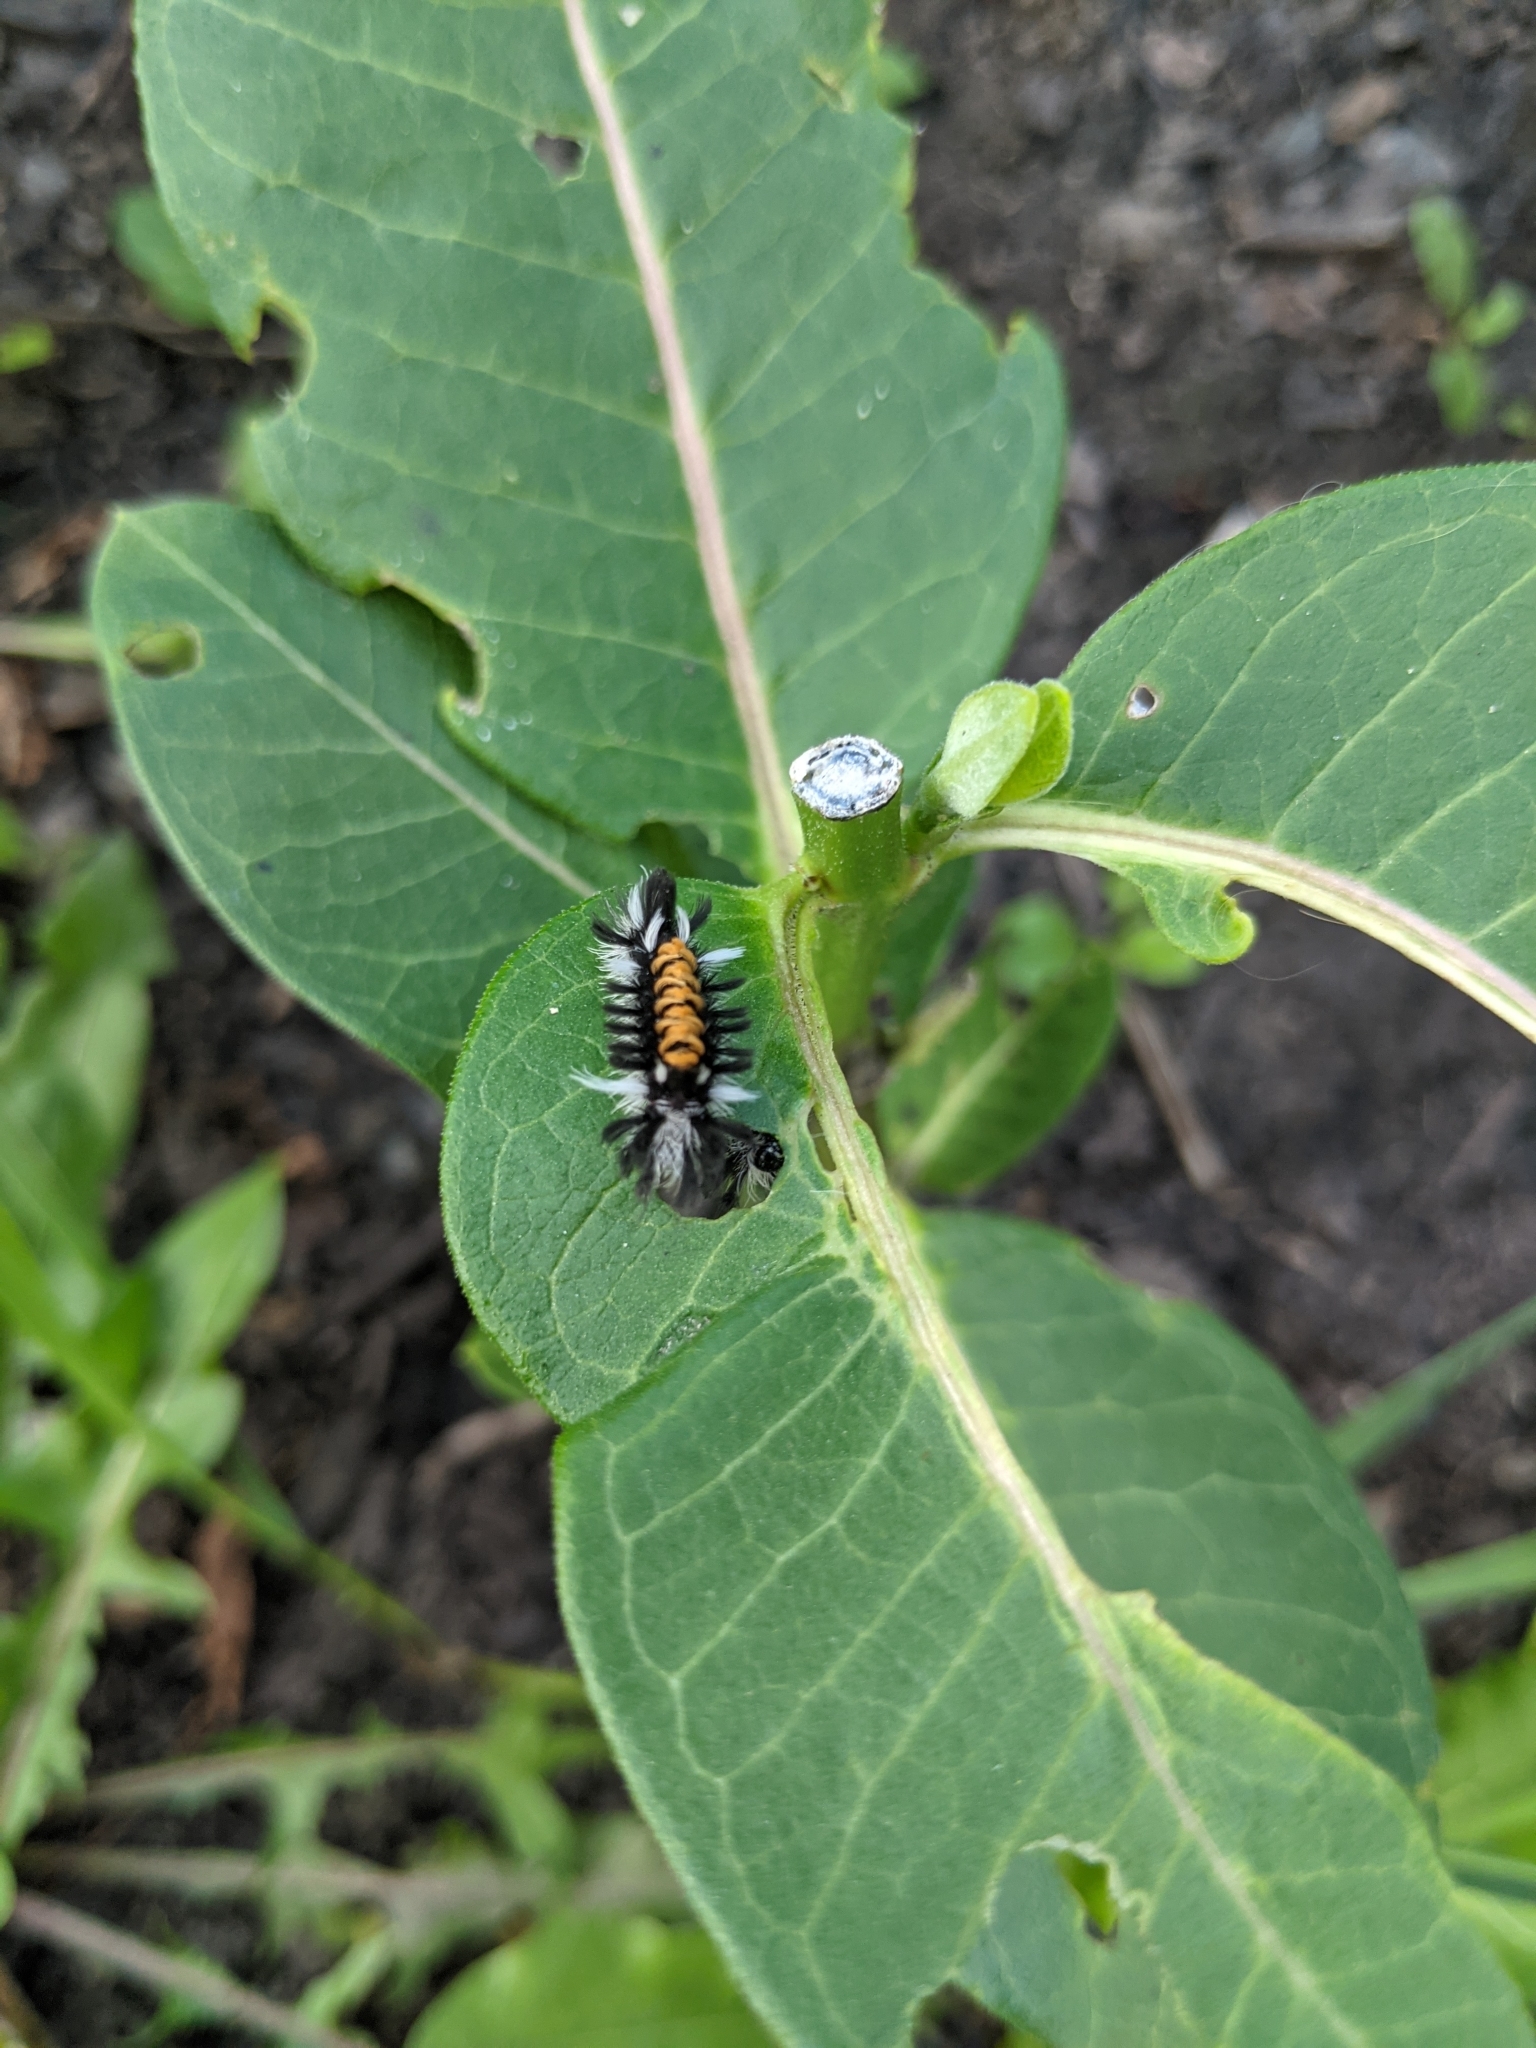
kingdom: Animalia
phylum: Arthropoda
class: Insecta
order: Lepidoptera
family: Erebidae
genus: Euchaetes
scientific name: Euchaetes egle
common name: Milkweed tussock moth
